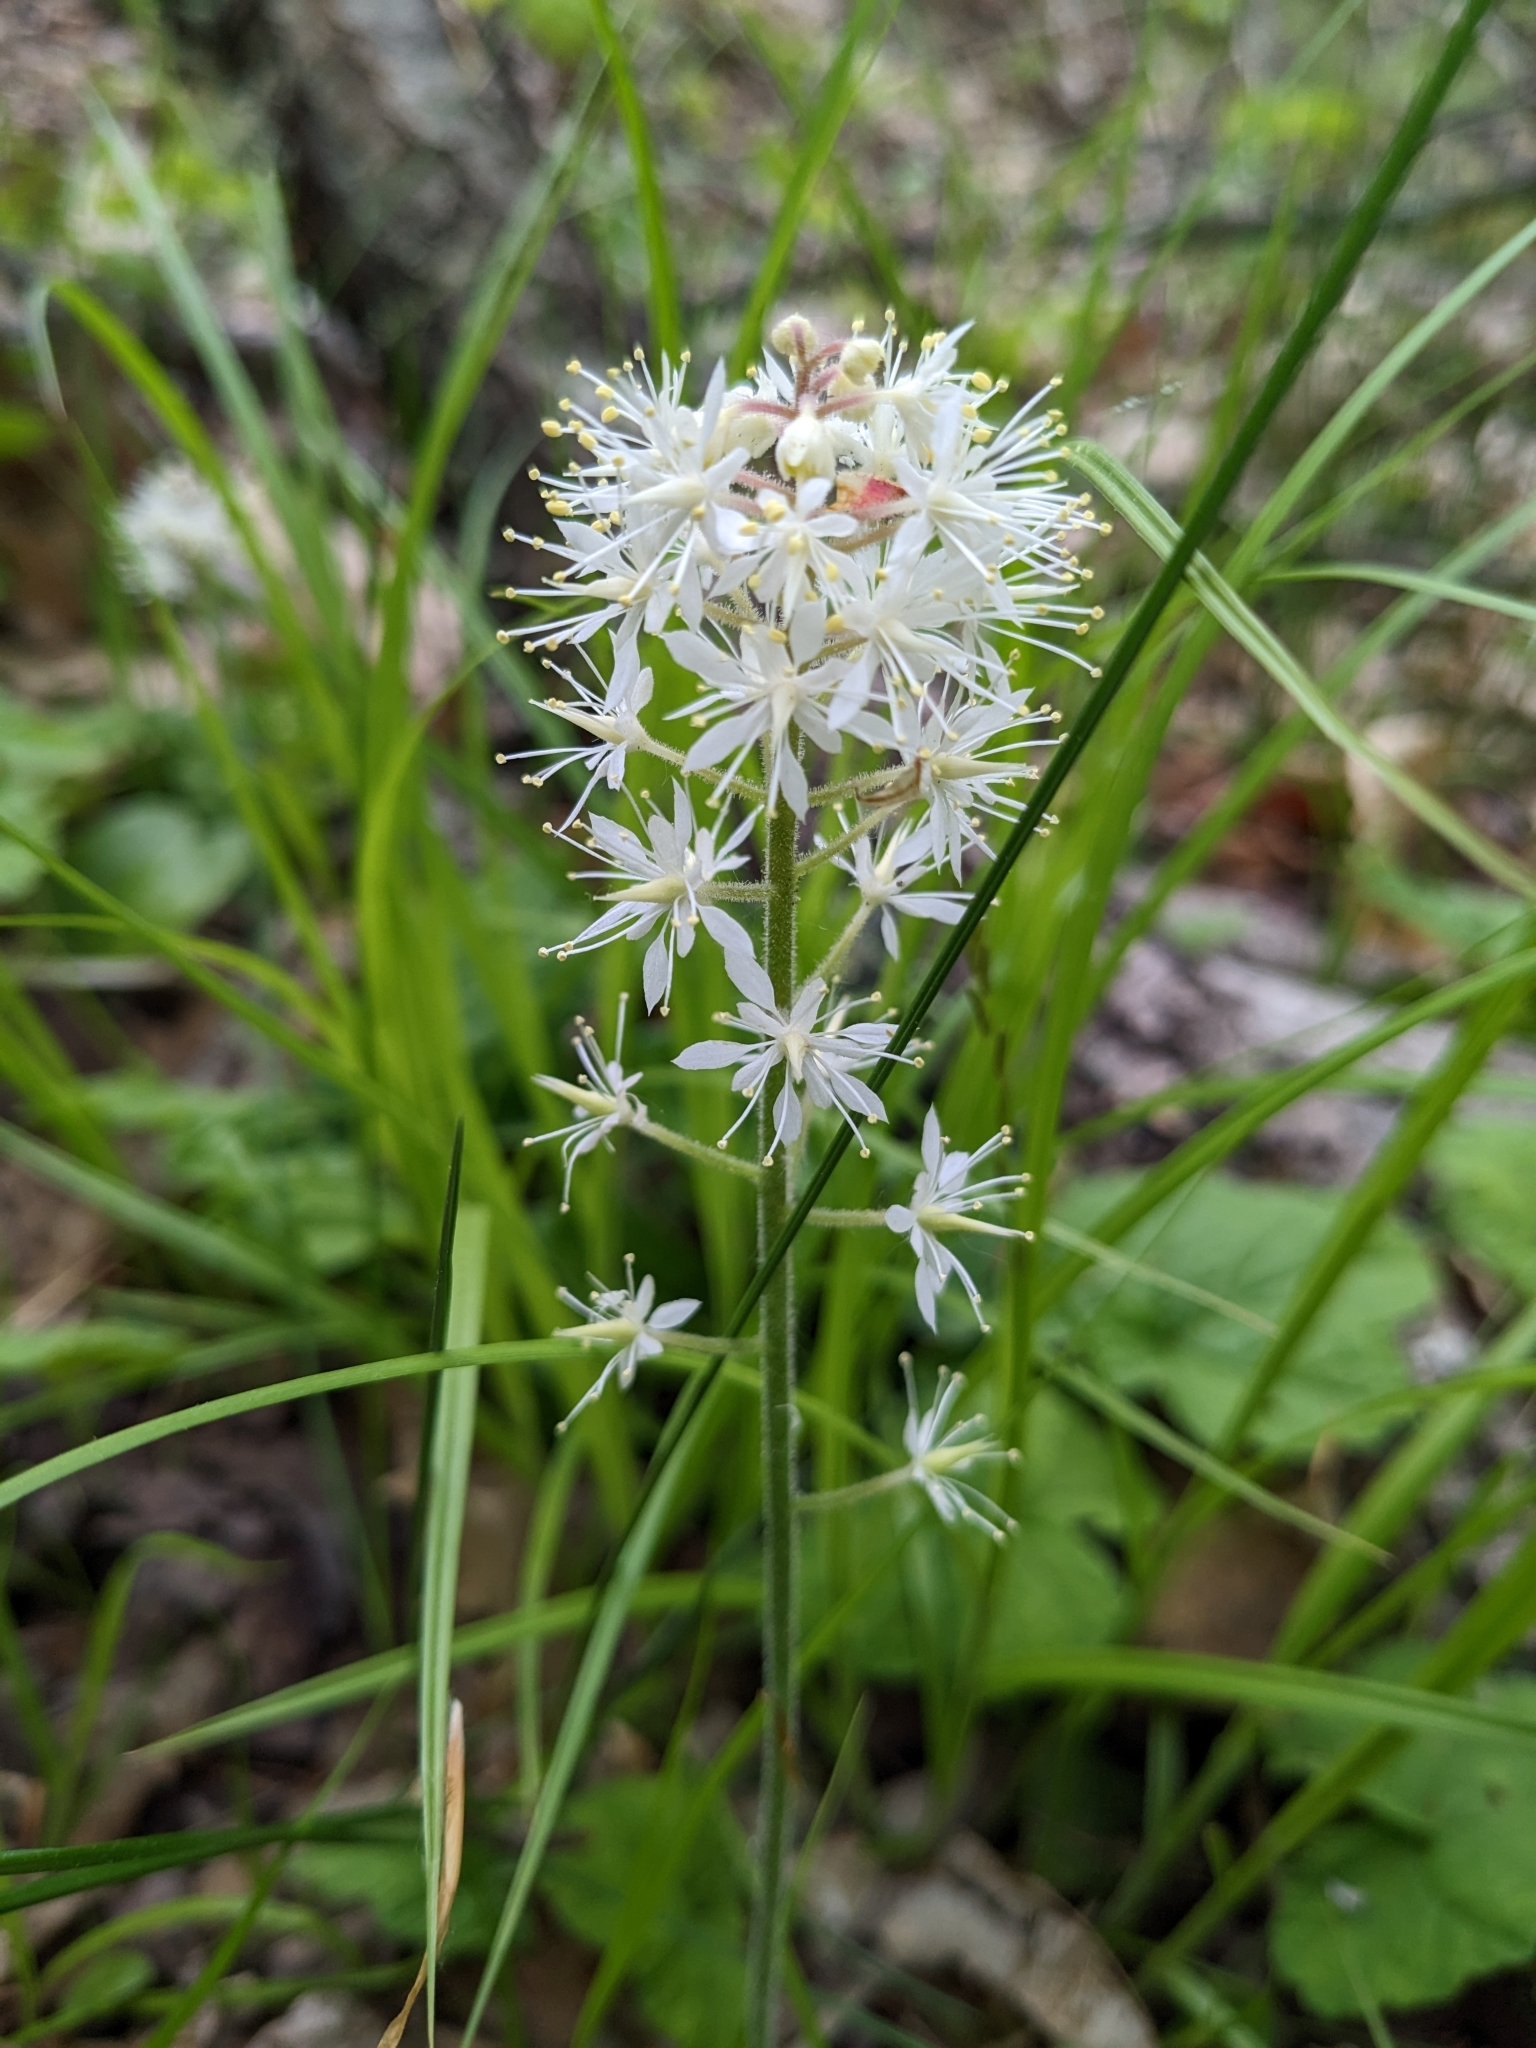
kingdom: Plantae
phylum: Tracheophyta
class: Magnoliopsida
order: Saxifragales
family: Saxifragaceae
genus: Tiarella
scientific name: Tiarella stolonifera
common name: Stoloniferous foamflower
